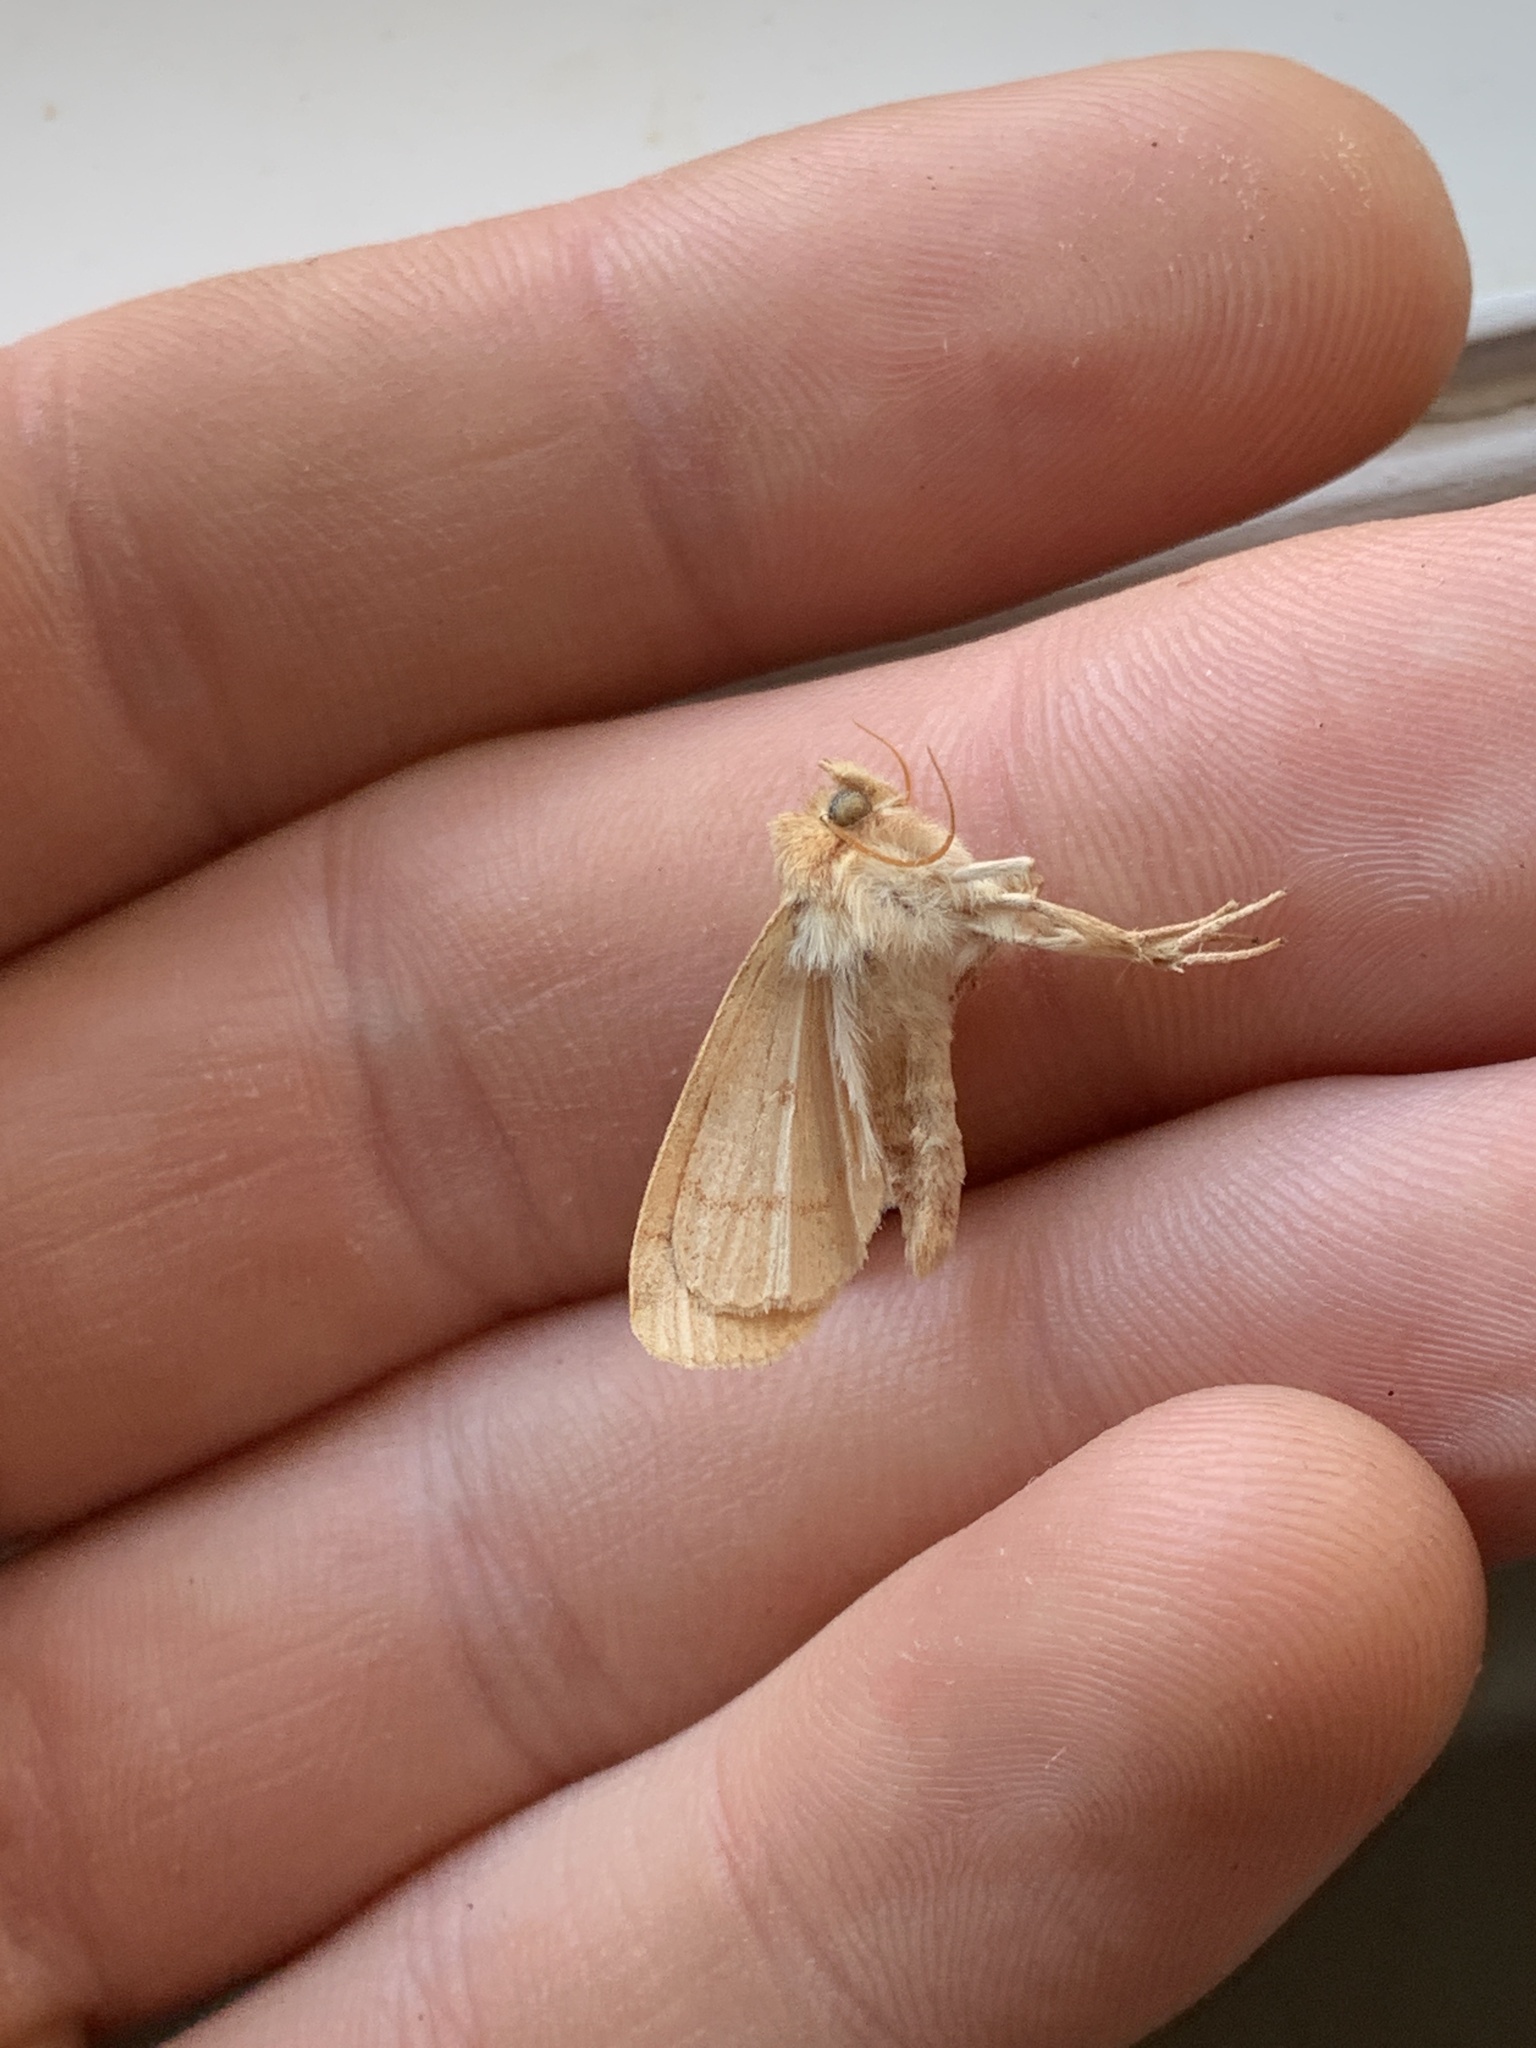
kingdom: Animalia
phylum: Arthropoda
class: Insecta
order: Lepidoptera
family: Noctuidae
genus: Enargia
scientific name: Enargia decolor
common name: Aspen twoleaf tier moth
